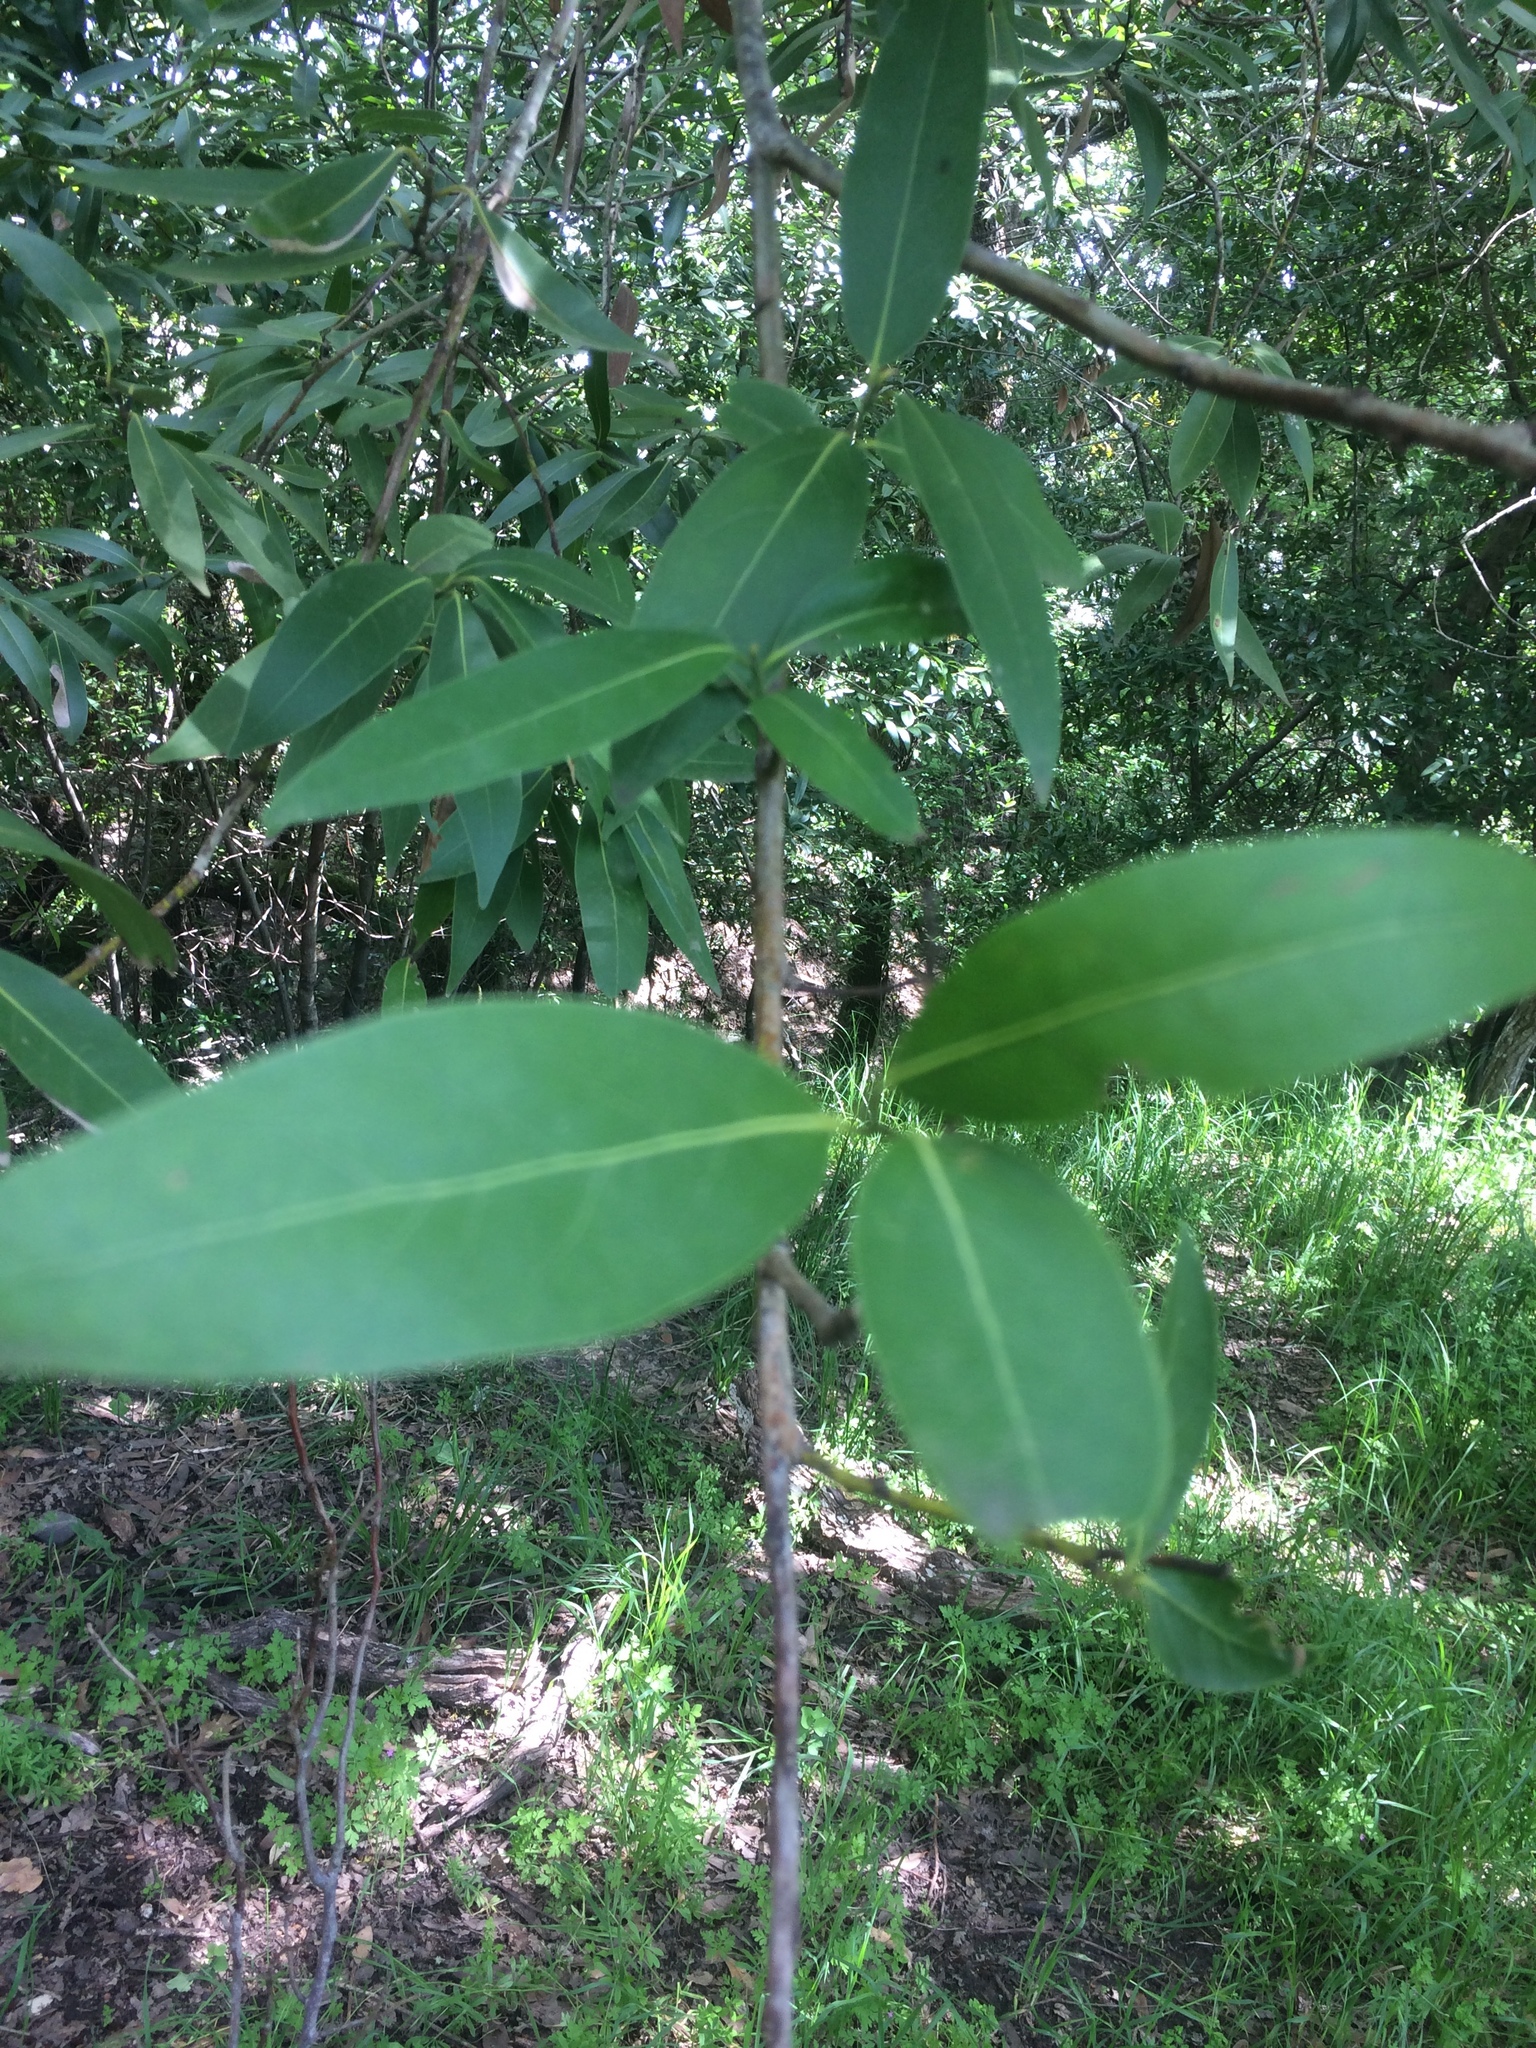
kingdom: Plantae
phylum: Tracheophyta
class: Magnoliopsida
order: Laurales
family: Lauraceae
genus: Umbellularia
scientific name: Umbellularia californica
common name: California bay
